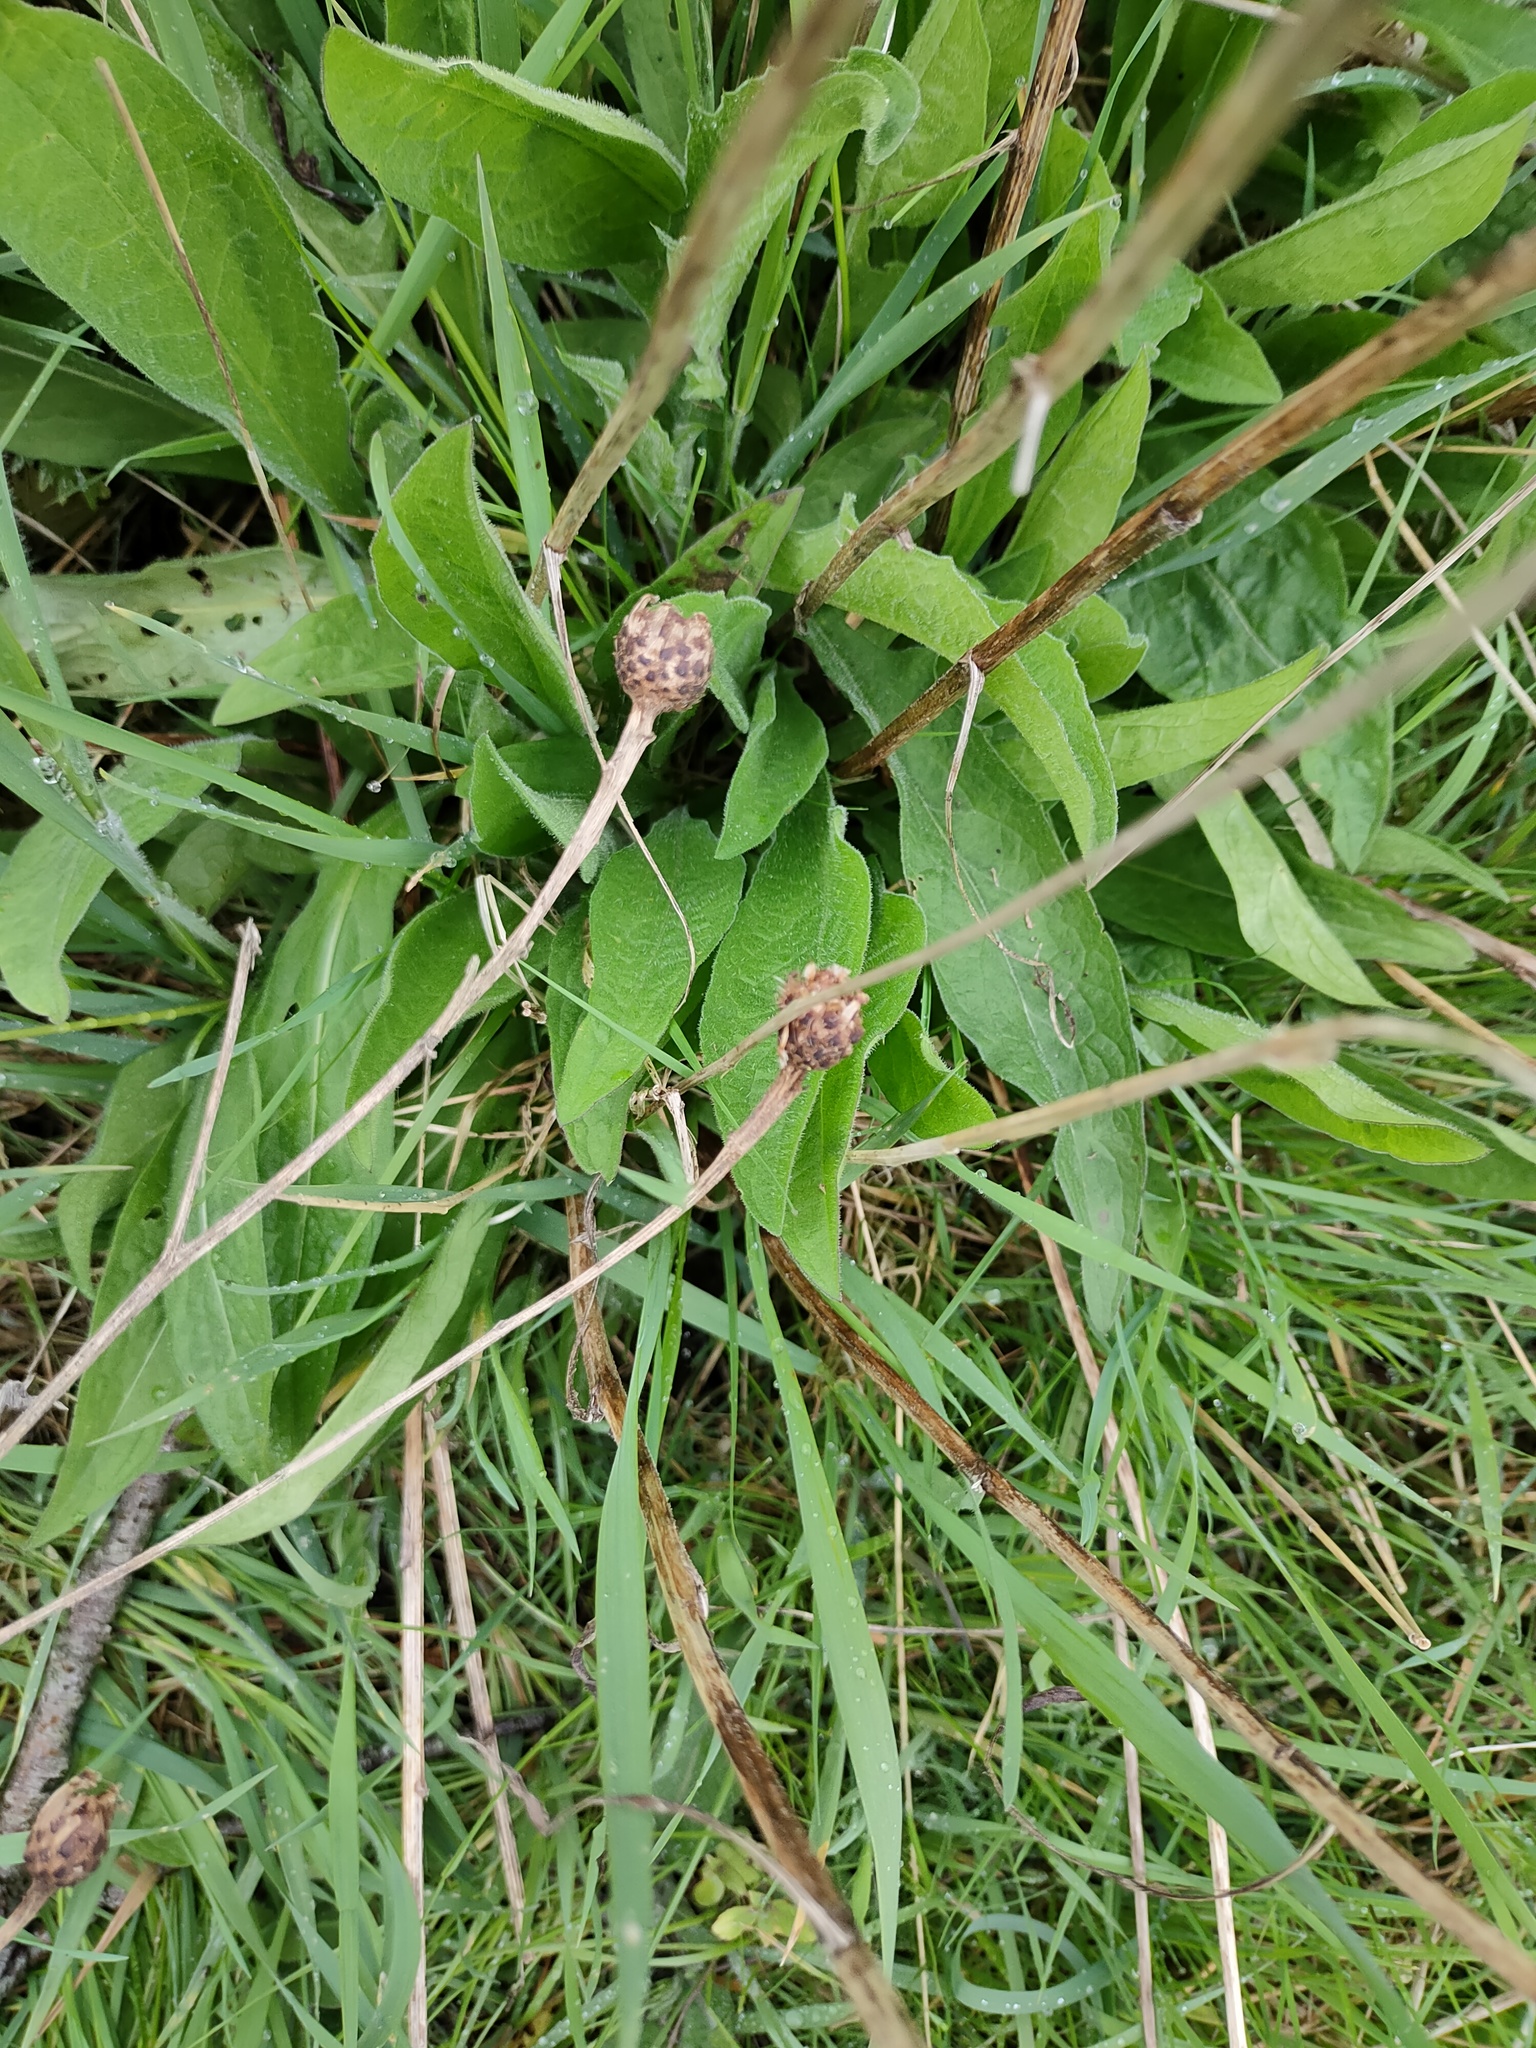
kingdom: Plantae
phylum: Tracheophyta
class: Magnoliopsida
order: Asterales
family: Asteraceae
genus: Centaurea
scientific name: Centaurea nigra
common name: Lesser knapweed
